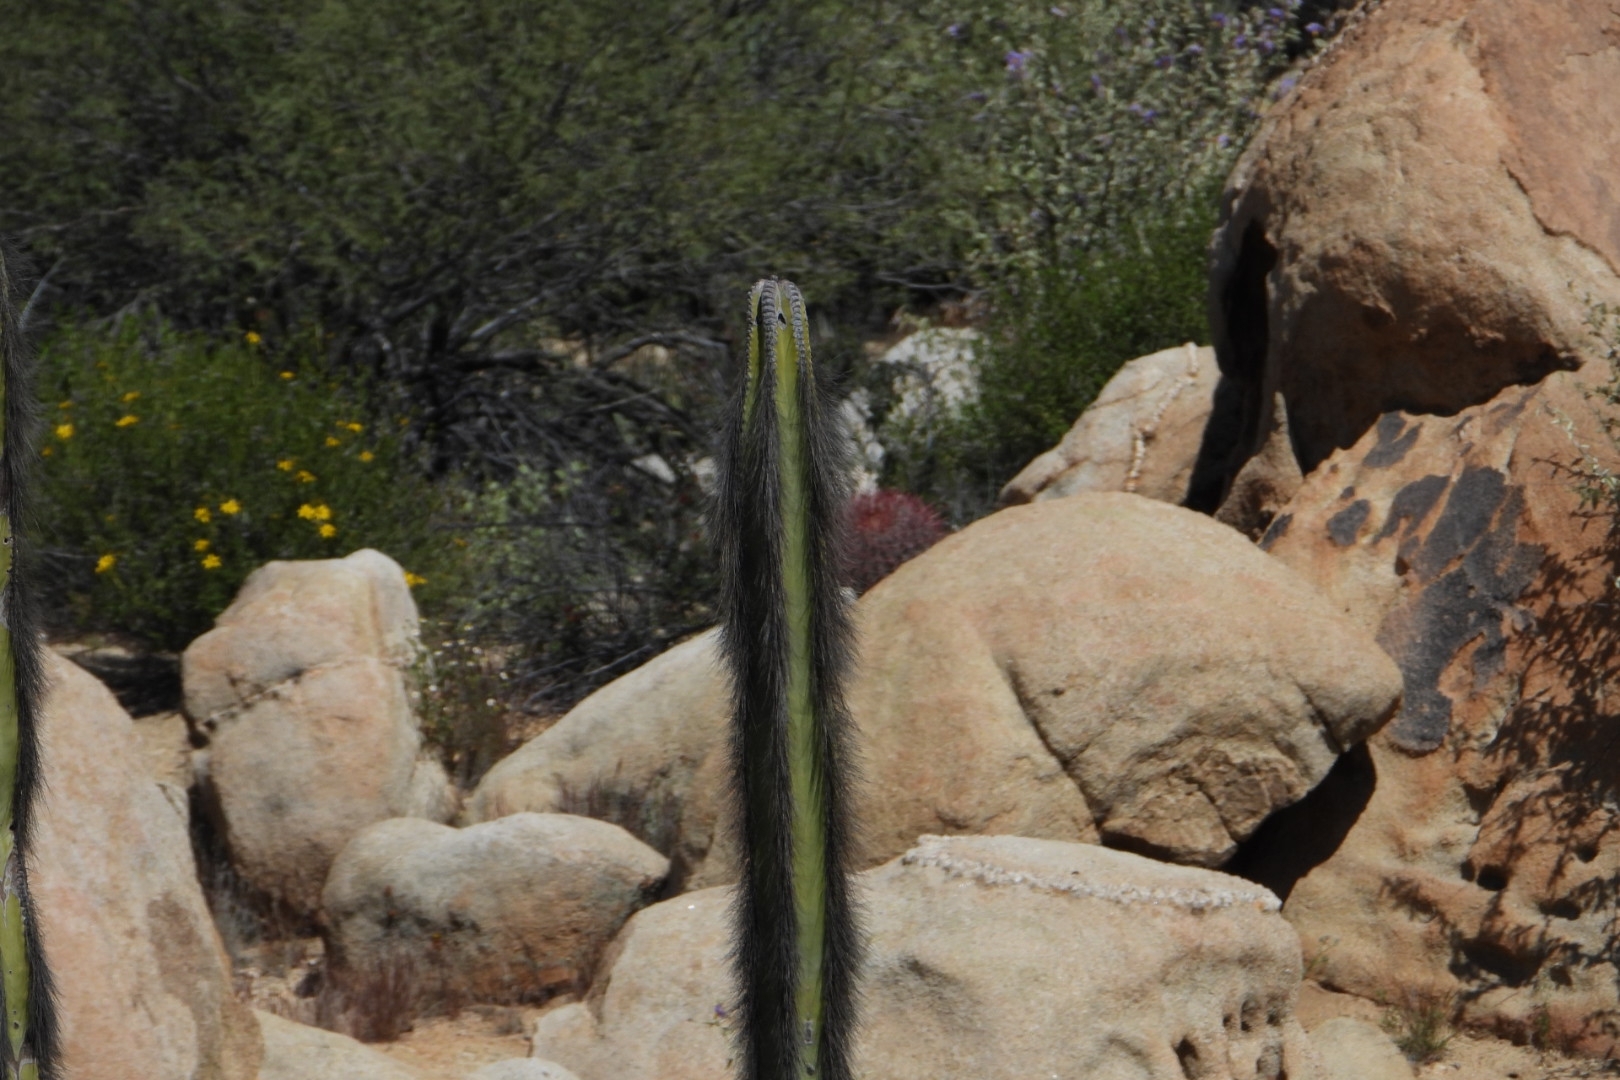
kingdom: Plantae
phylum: Tracheophyta
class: Magnoliopsida
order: Caryophyllales
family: Cactaceae
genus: Pachycereus
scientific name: Pachycereus schottii
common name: Senita cactus
